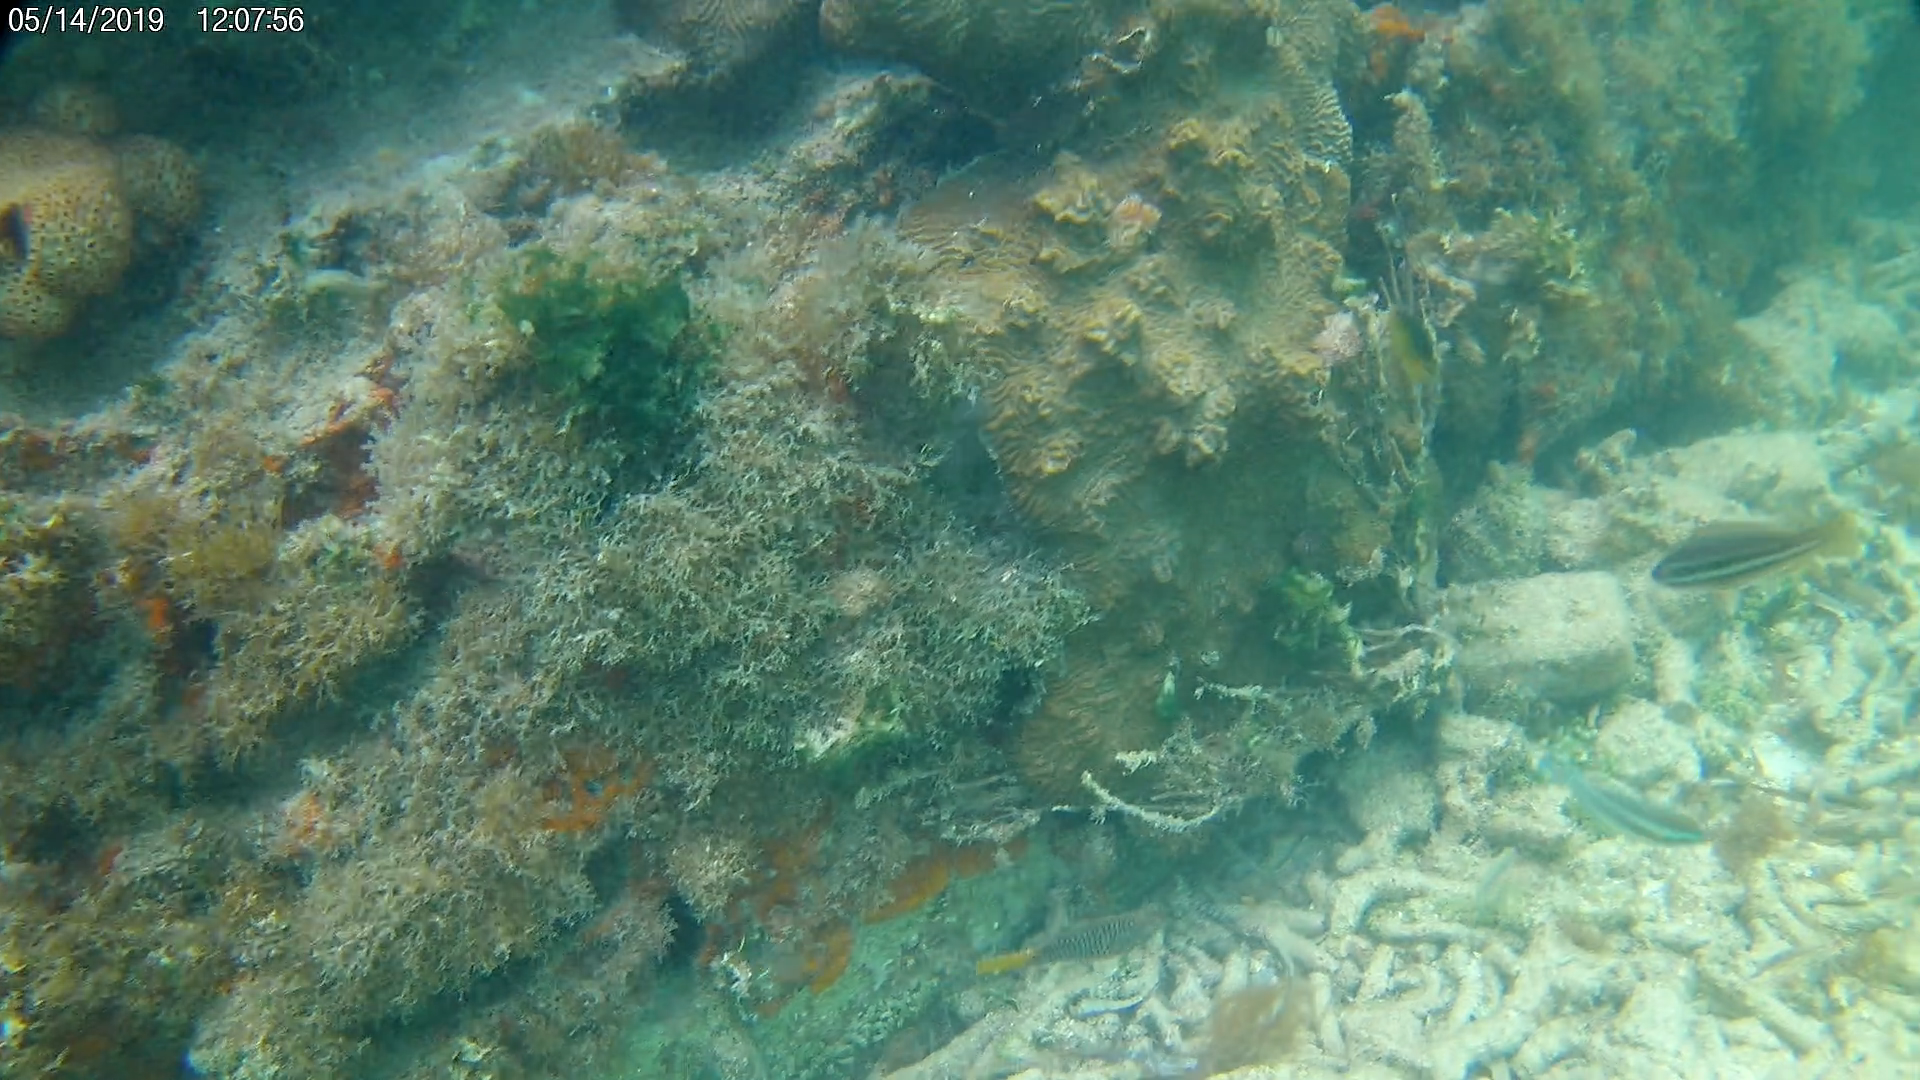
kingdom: Animalia
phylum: Chordata
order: Perciformes
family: Scaridae
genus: Scarus
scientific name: Scarus iseri
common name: Striped parrotfish
